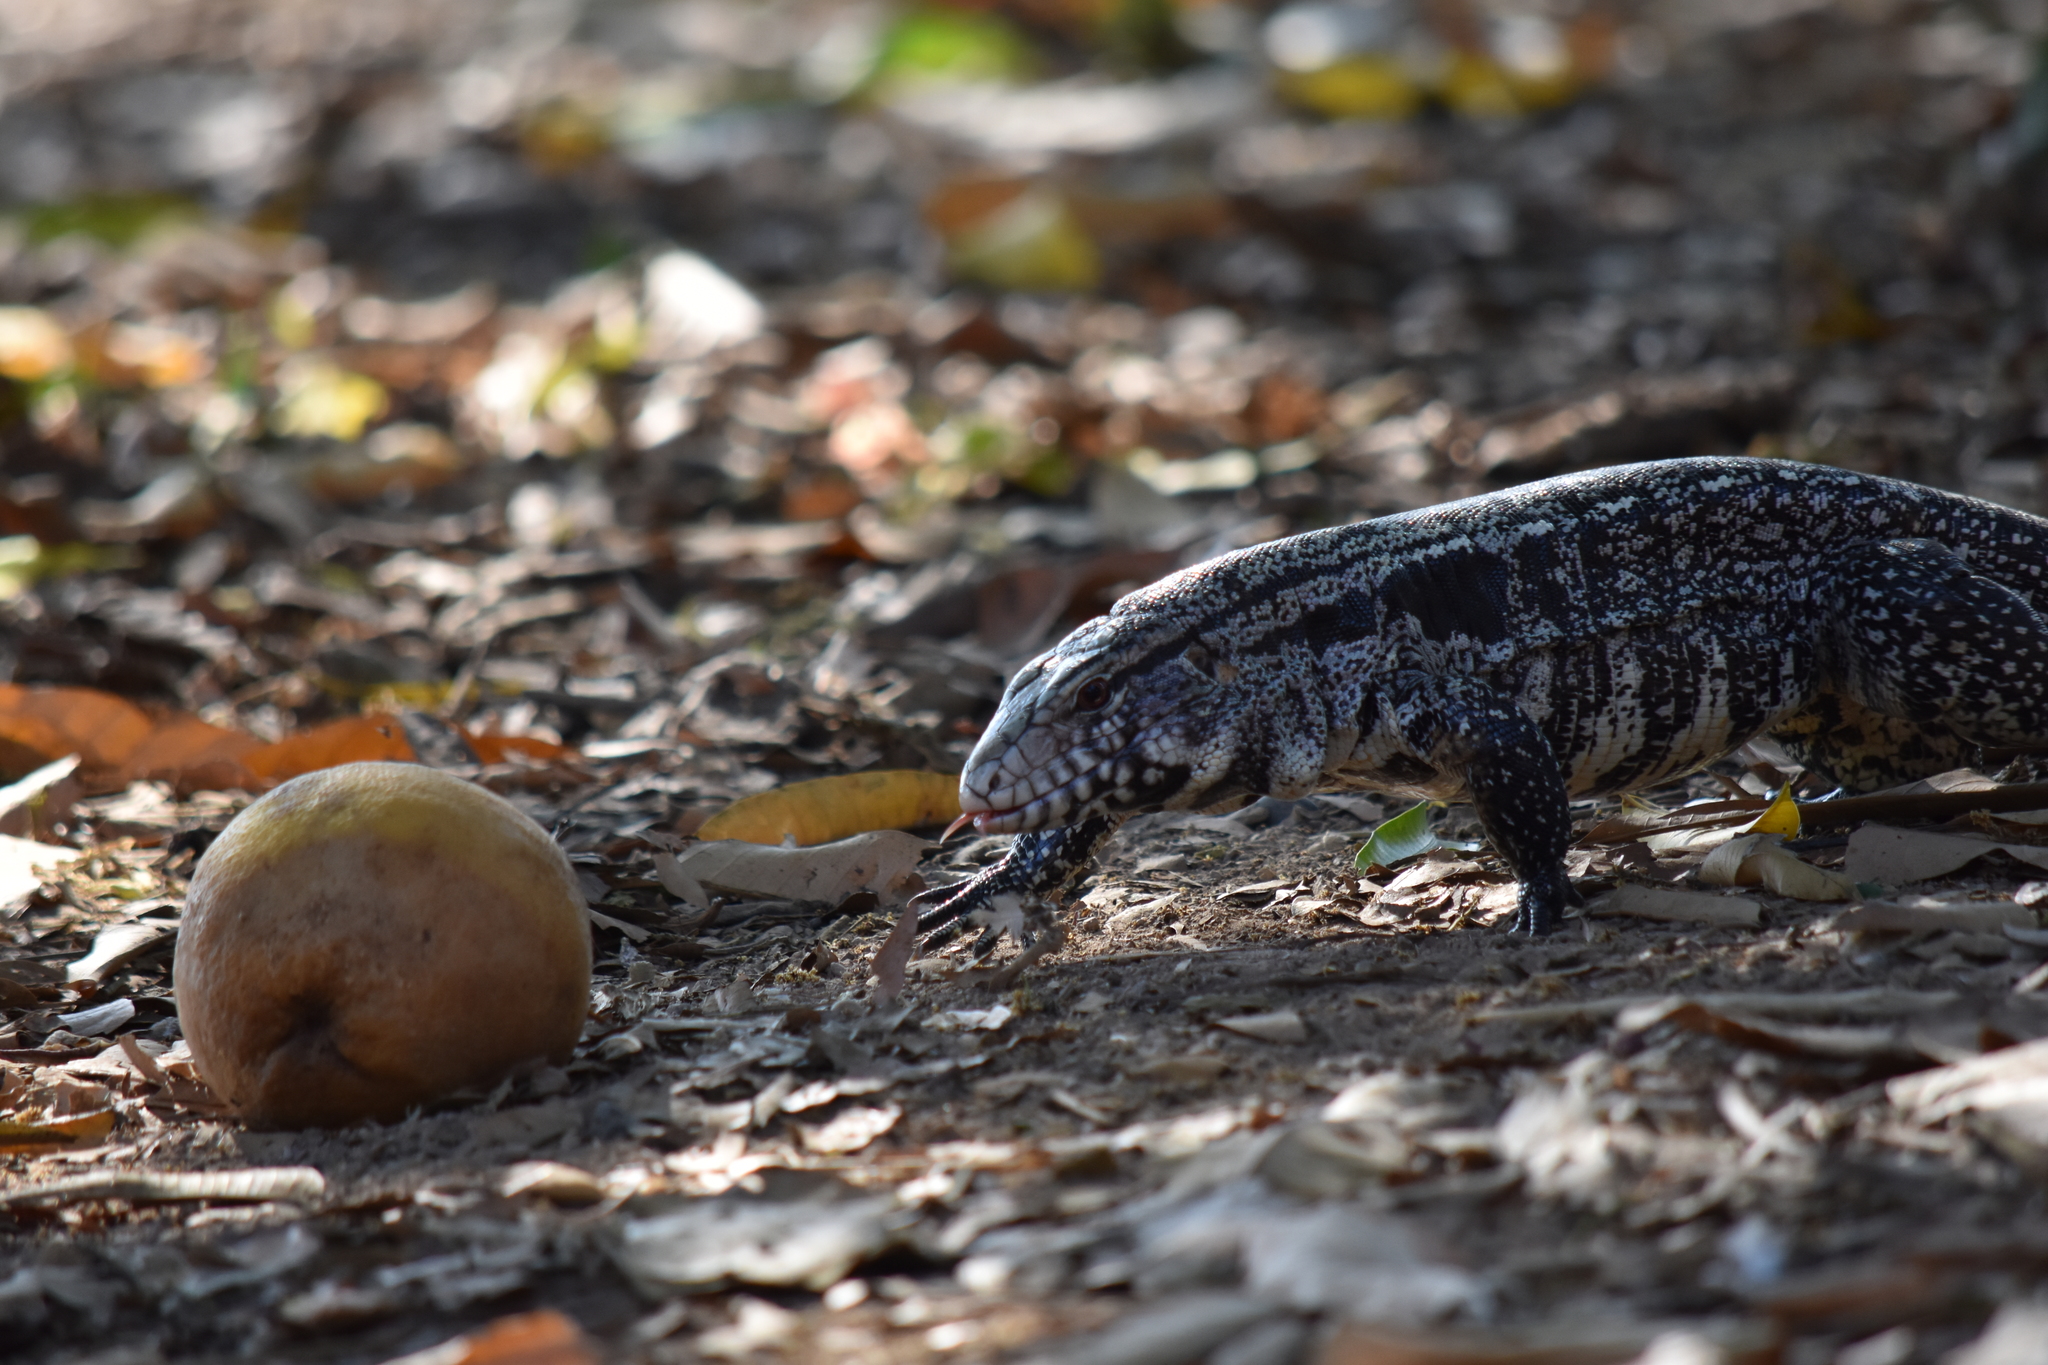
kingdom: Animalia
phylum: Chordata
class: Squamata
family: Teiidae
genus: Salvator
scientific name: Salvator merianae
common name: Argentine black and white tegu
